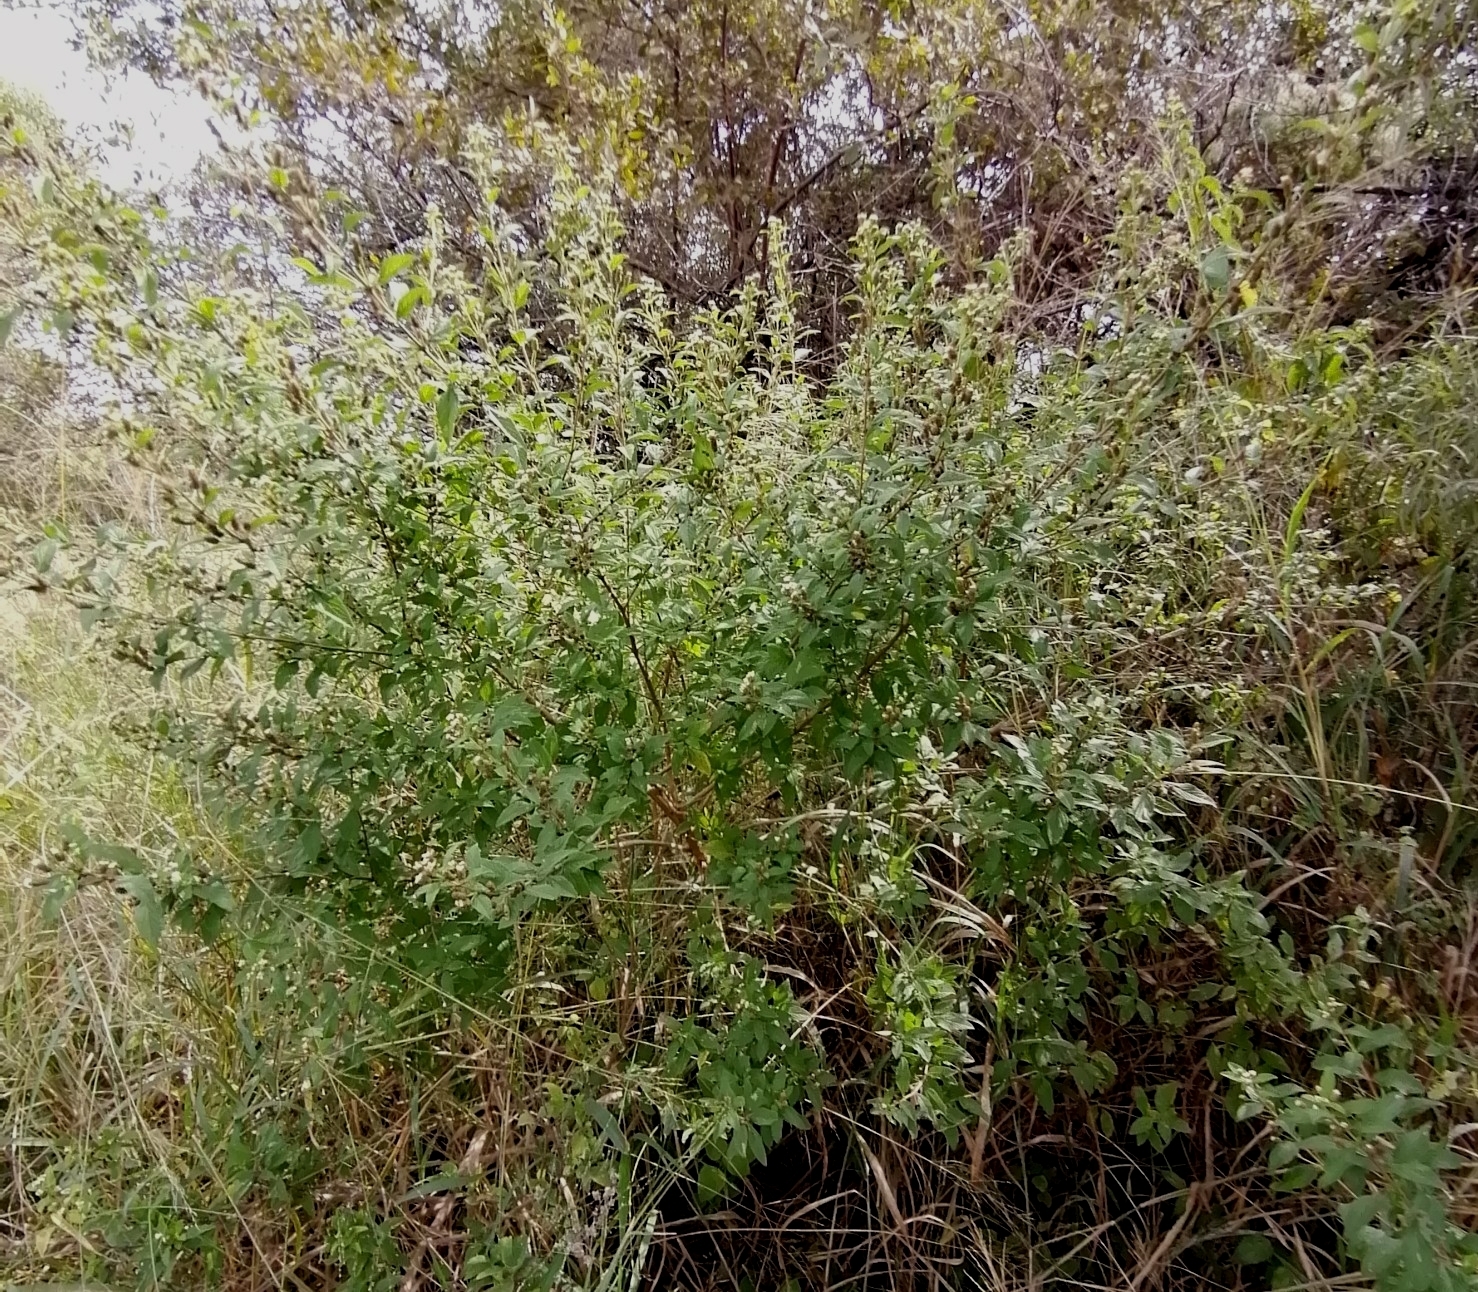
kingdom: Plantae
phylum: Tracheophyta
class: Magnoliopsida
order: Lamiales
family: Verbenaceae
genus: Lippia
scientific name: Lippia javanica
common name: Lemonbush
